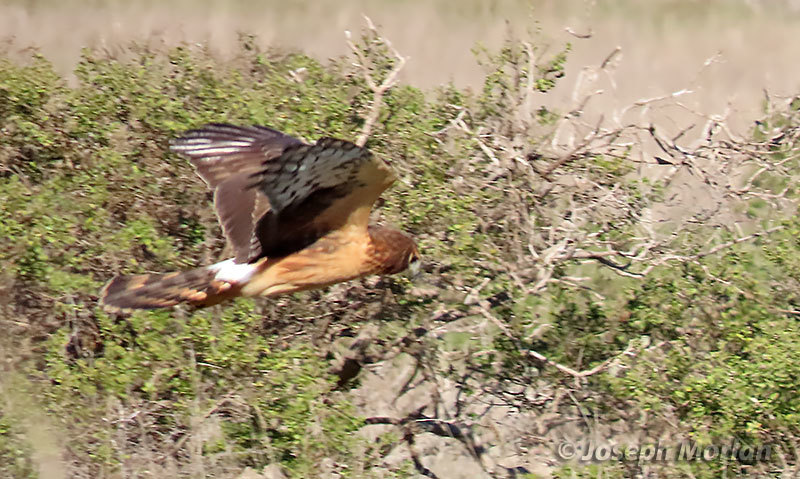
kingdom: Animalia
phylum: Chordata
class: Aves
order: Accipitriformes
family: Accipitridae
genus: Circus
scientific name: Circus cyaneus
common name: Hen harrier
